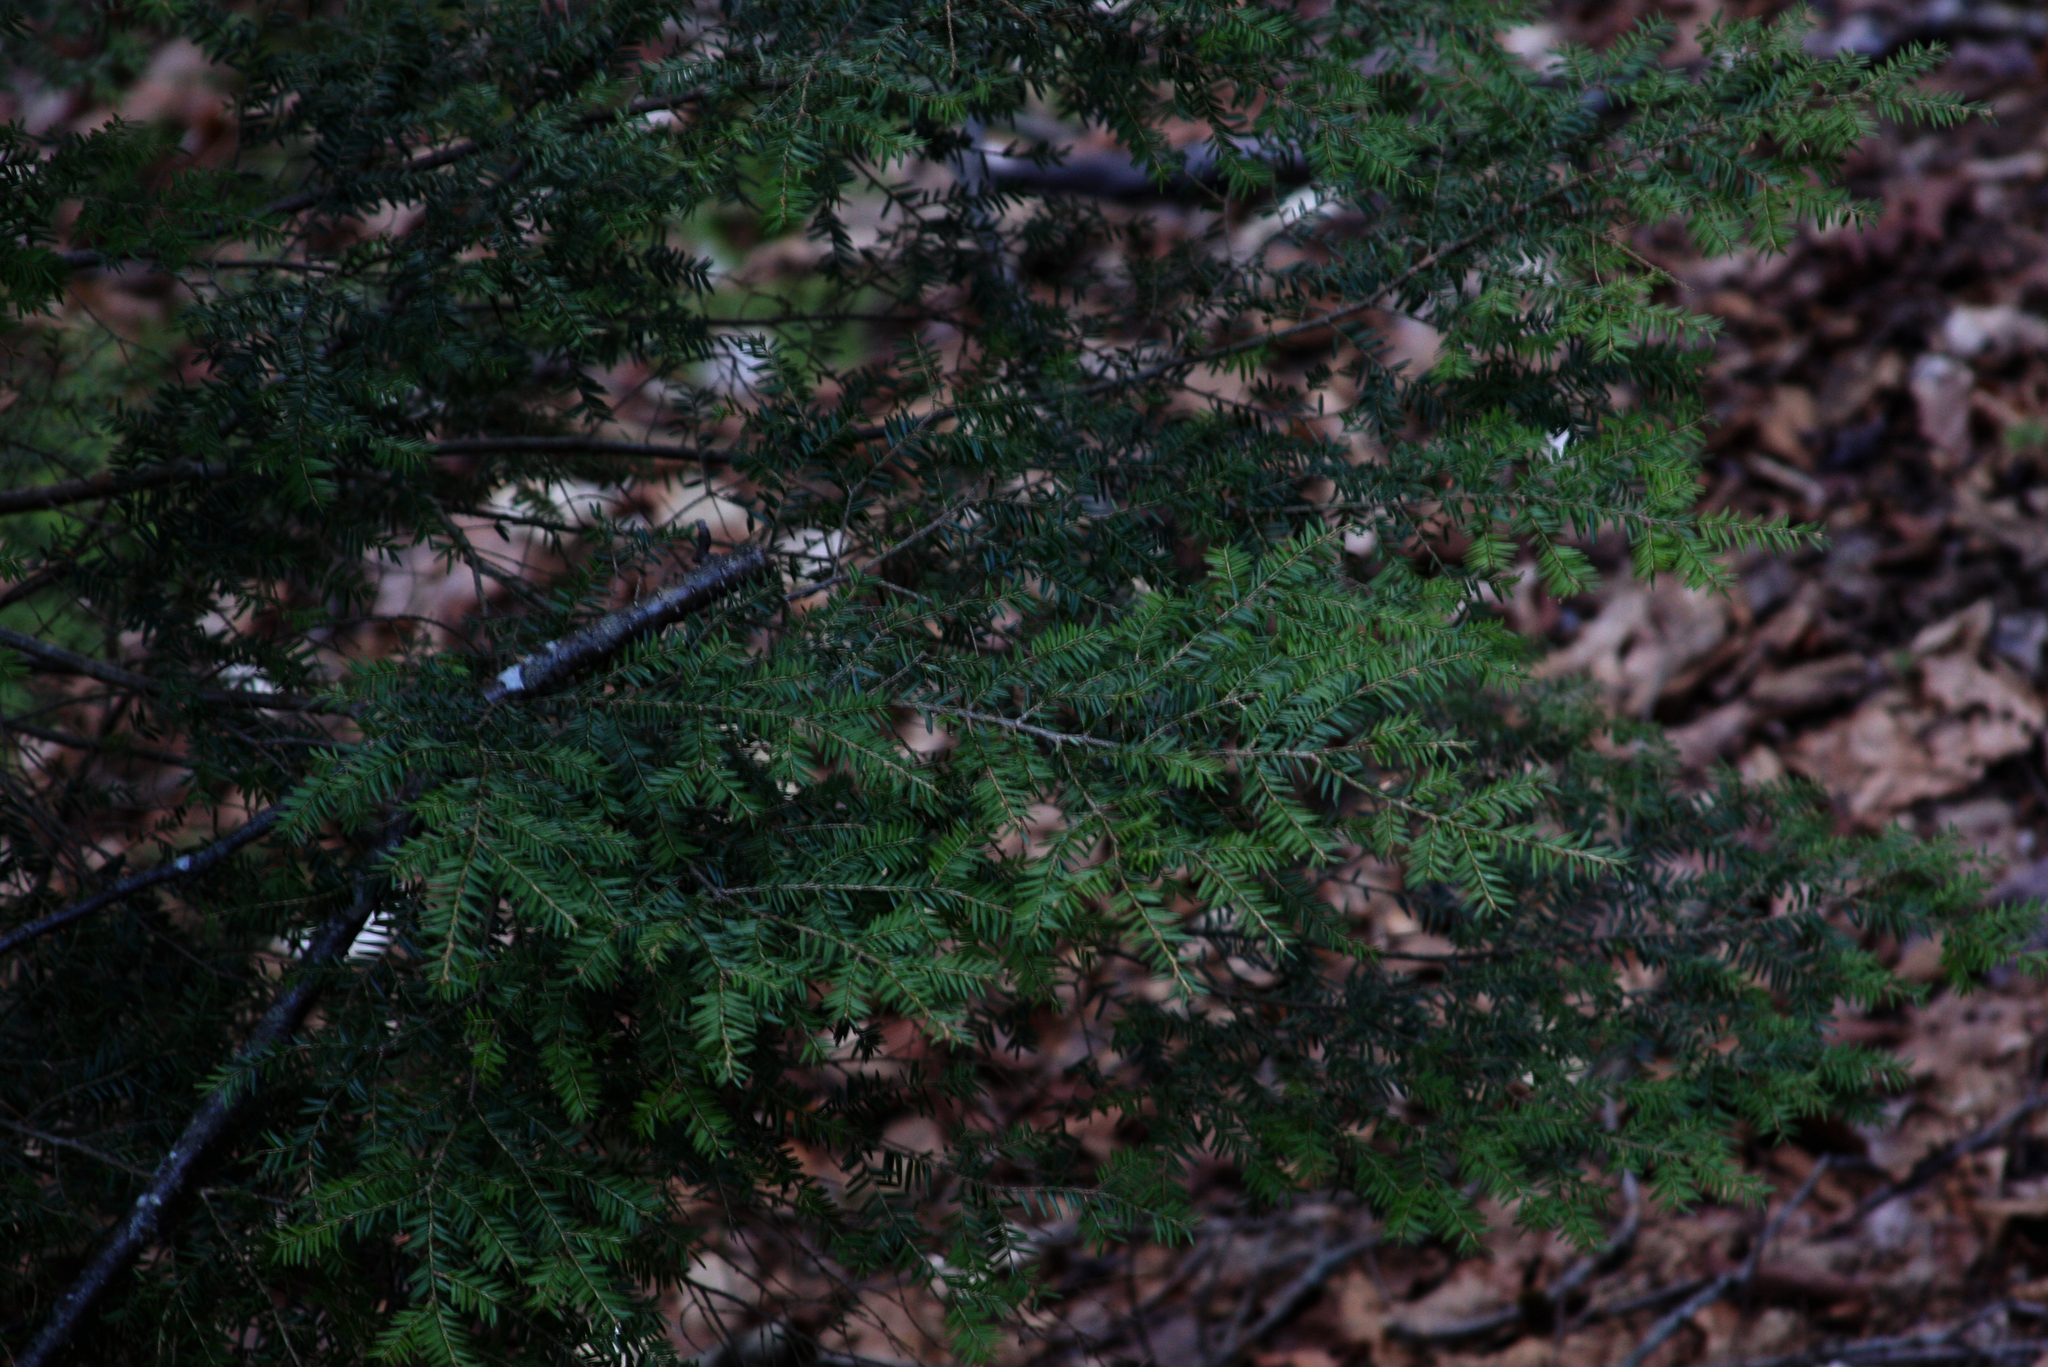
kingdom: Plantae
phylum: Tracheophyta
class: Pinopsida
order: Pinales
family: Pinaceae
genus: Tsuga
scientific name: Tsuga canadensis
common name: Eastern hemlock
